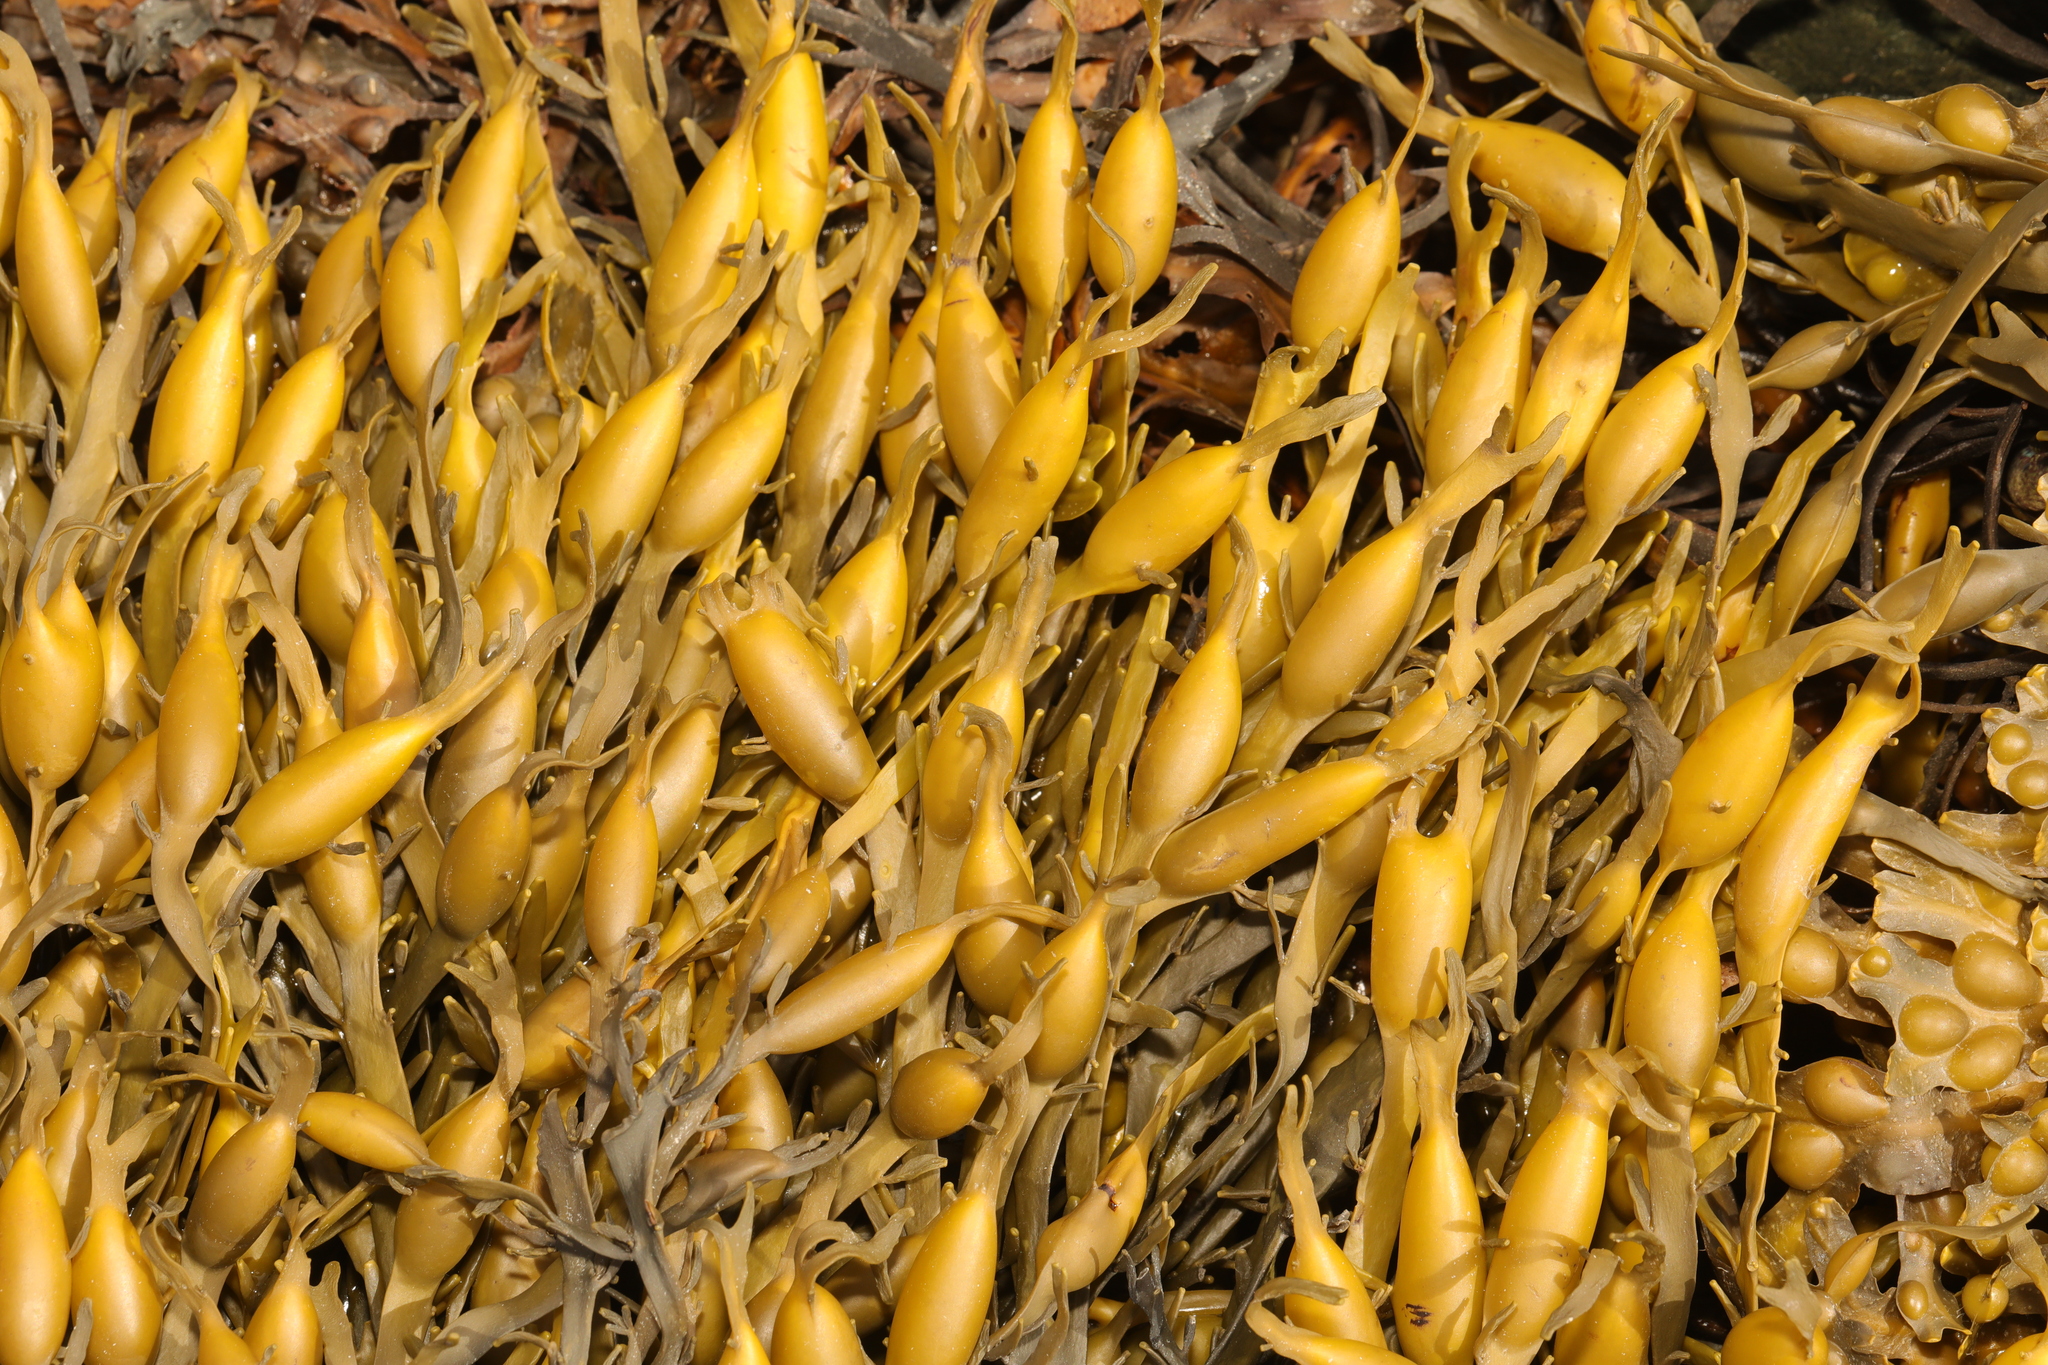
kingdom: Chromista
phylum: Ochrophyta
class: Phaeophyceae
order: Fucales
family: Fucaceae
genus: Ascophyllum
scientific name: Ascophyllum nodosum
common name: Knotted wrack
